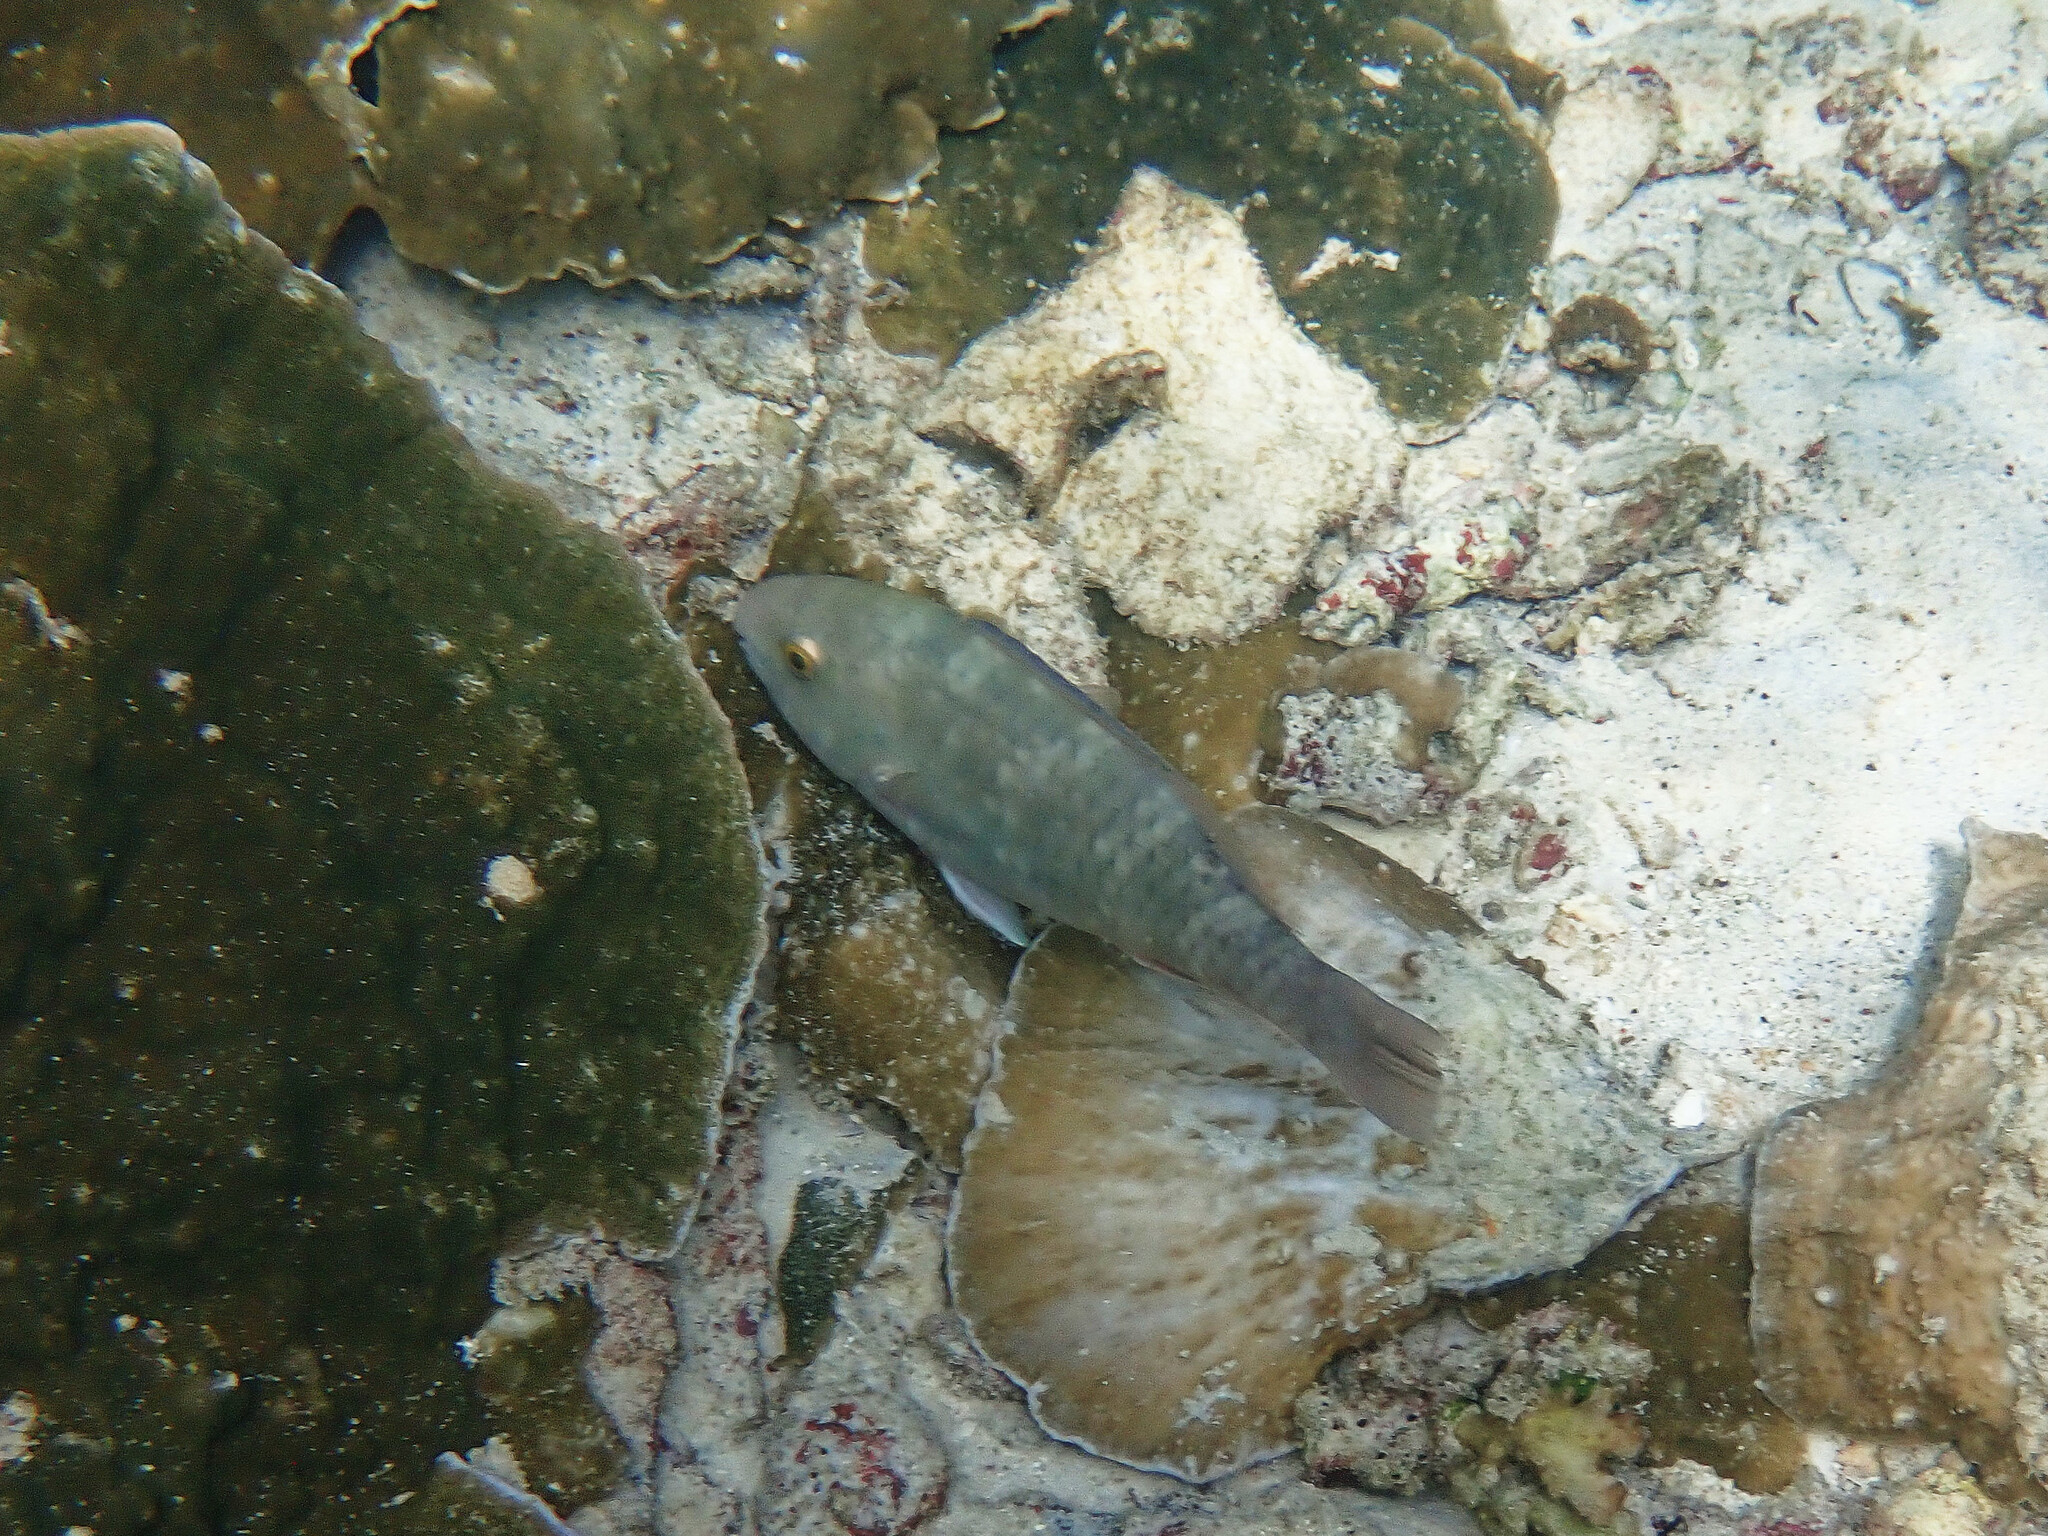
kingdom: Animalia
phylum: Chordata
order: Perciformes
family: Scaridae
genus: Scarus
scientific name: Scarus quoyi
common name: Quoy's parrotfish
